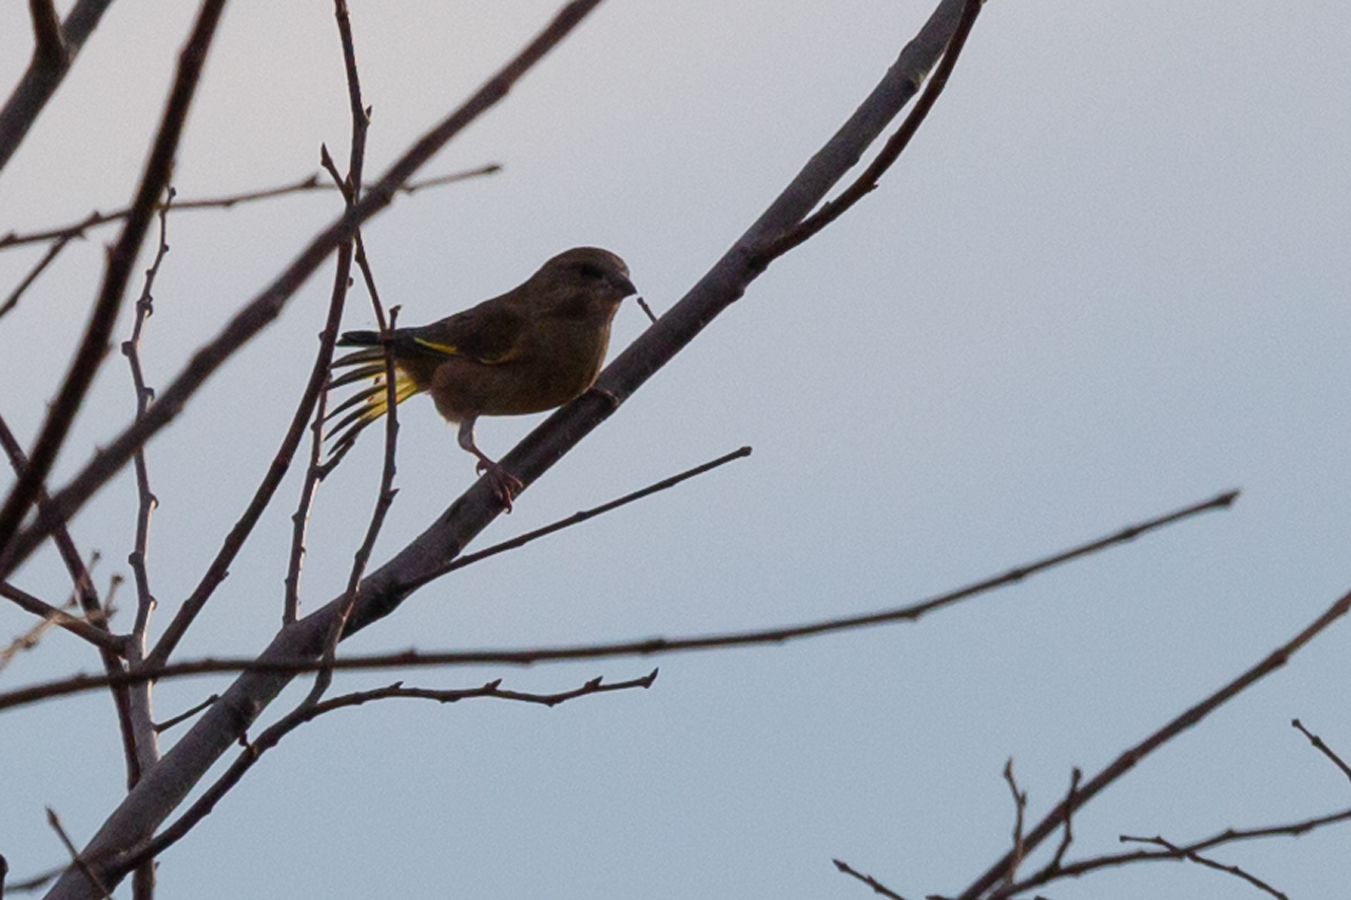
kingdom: Animalia
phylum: Chordata
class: Aves
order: Passeriformes
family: Fringillidae
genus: Fringilla
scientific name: Fringilla montifringilla
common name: Brambling
